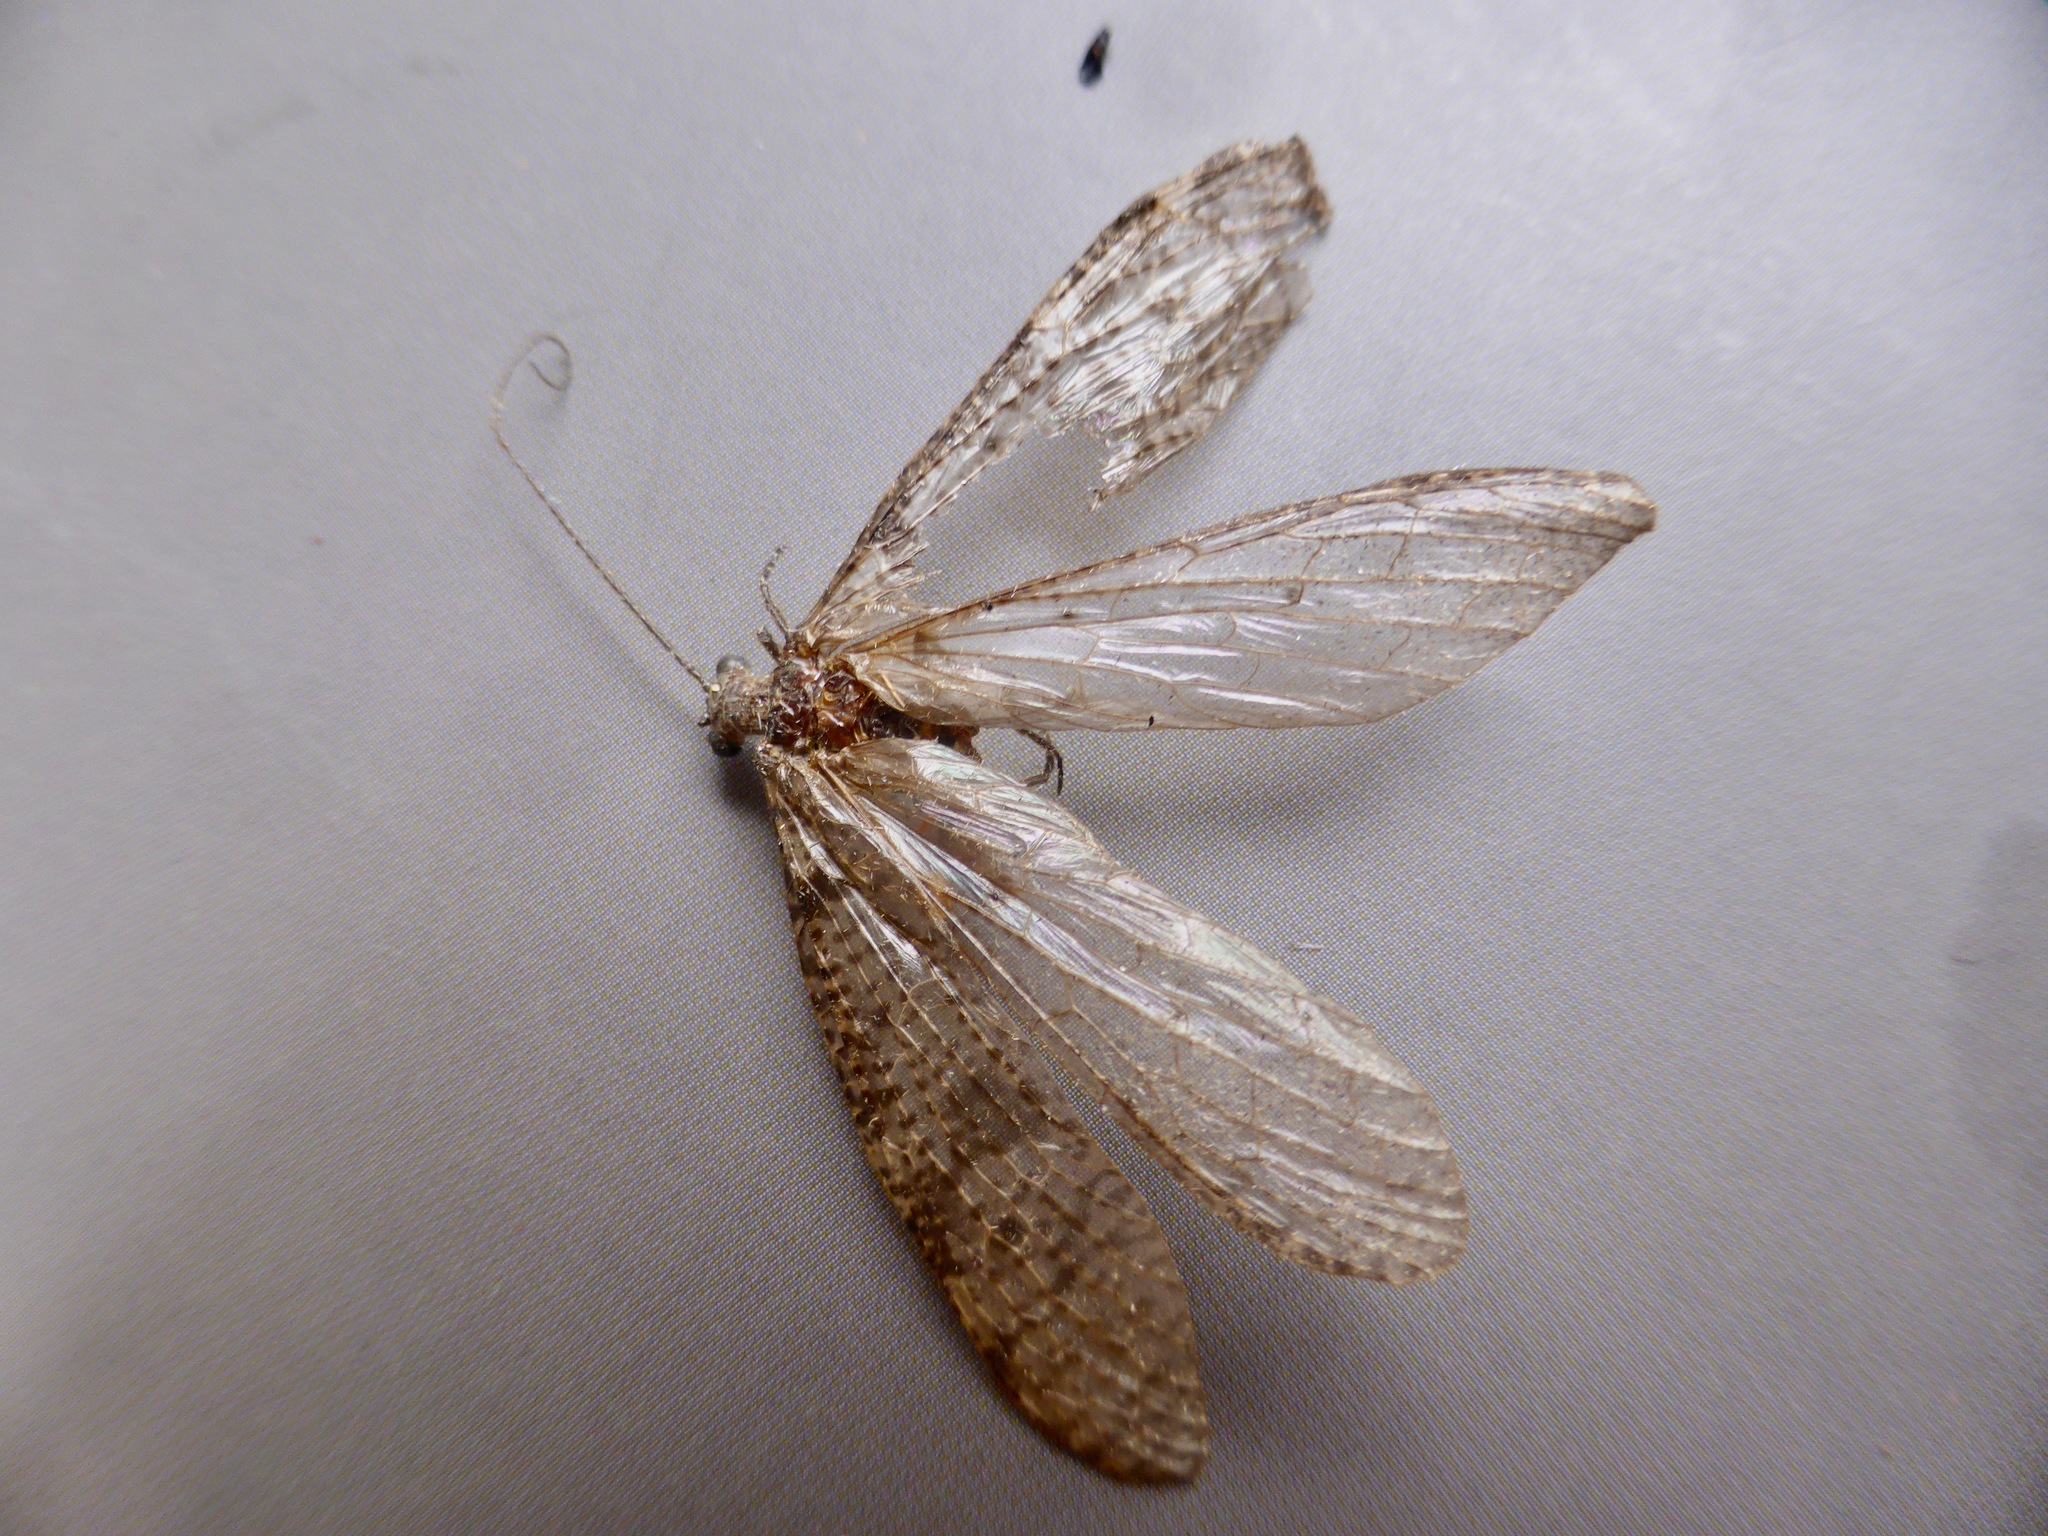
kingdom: Animalia
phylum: Arthropoda
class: Insecta
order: Megaloptera
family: Corydalidae
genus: Archichauliodes
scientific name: Archichauliodes diversus
